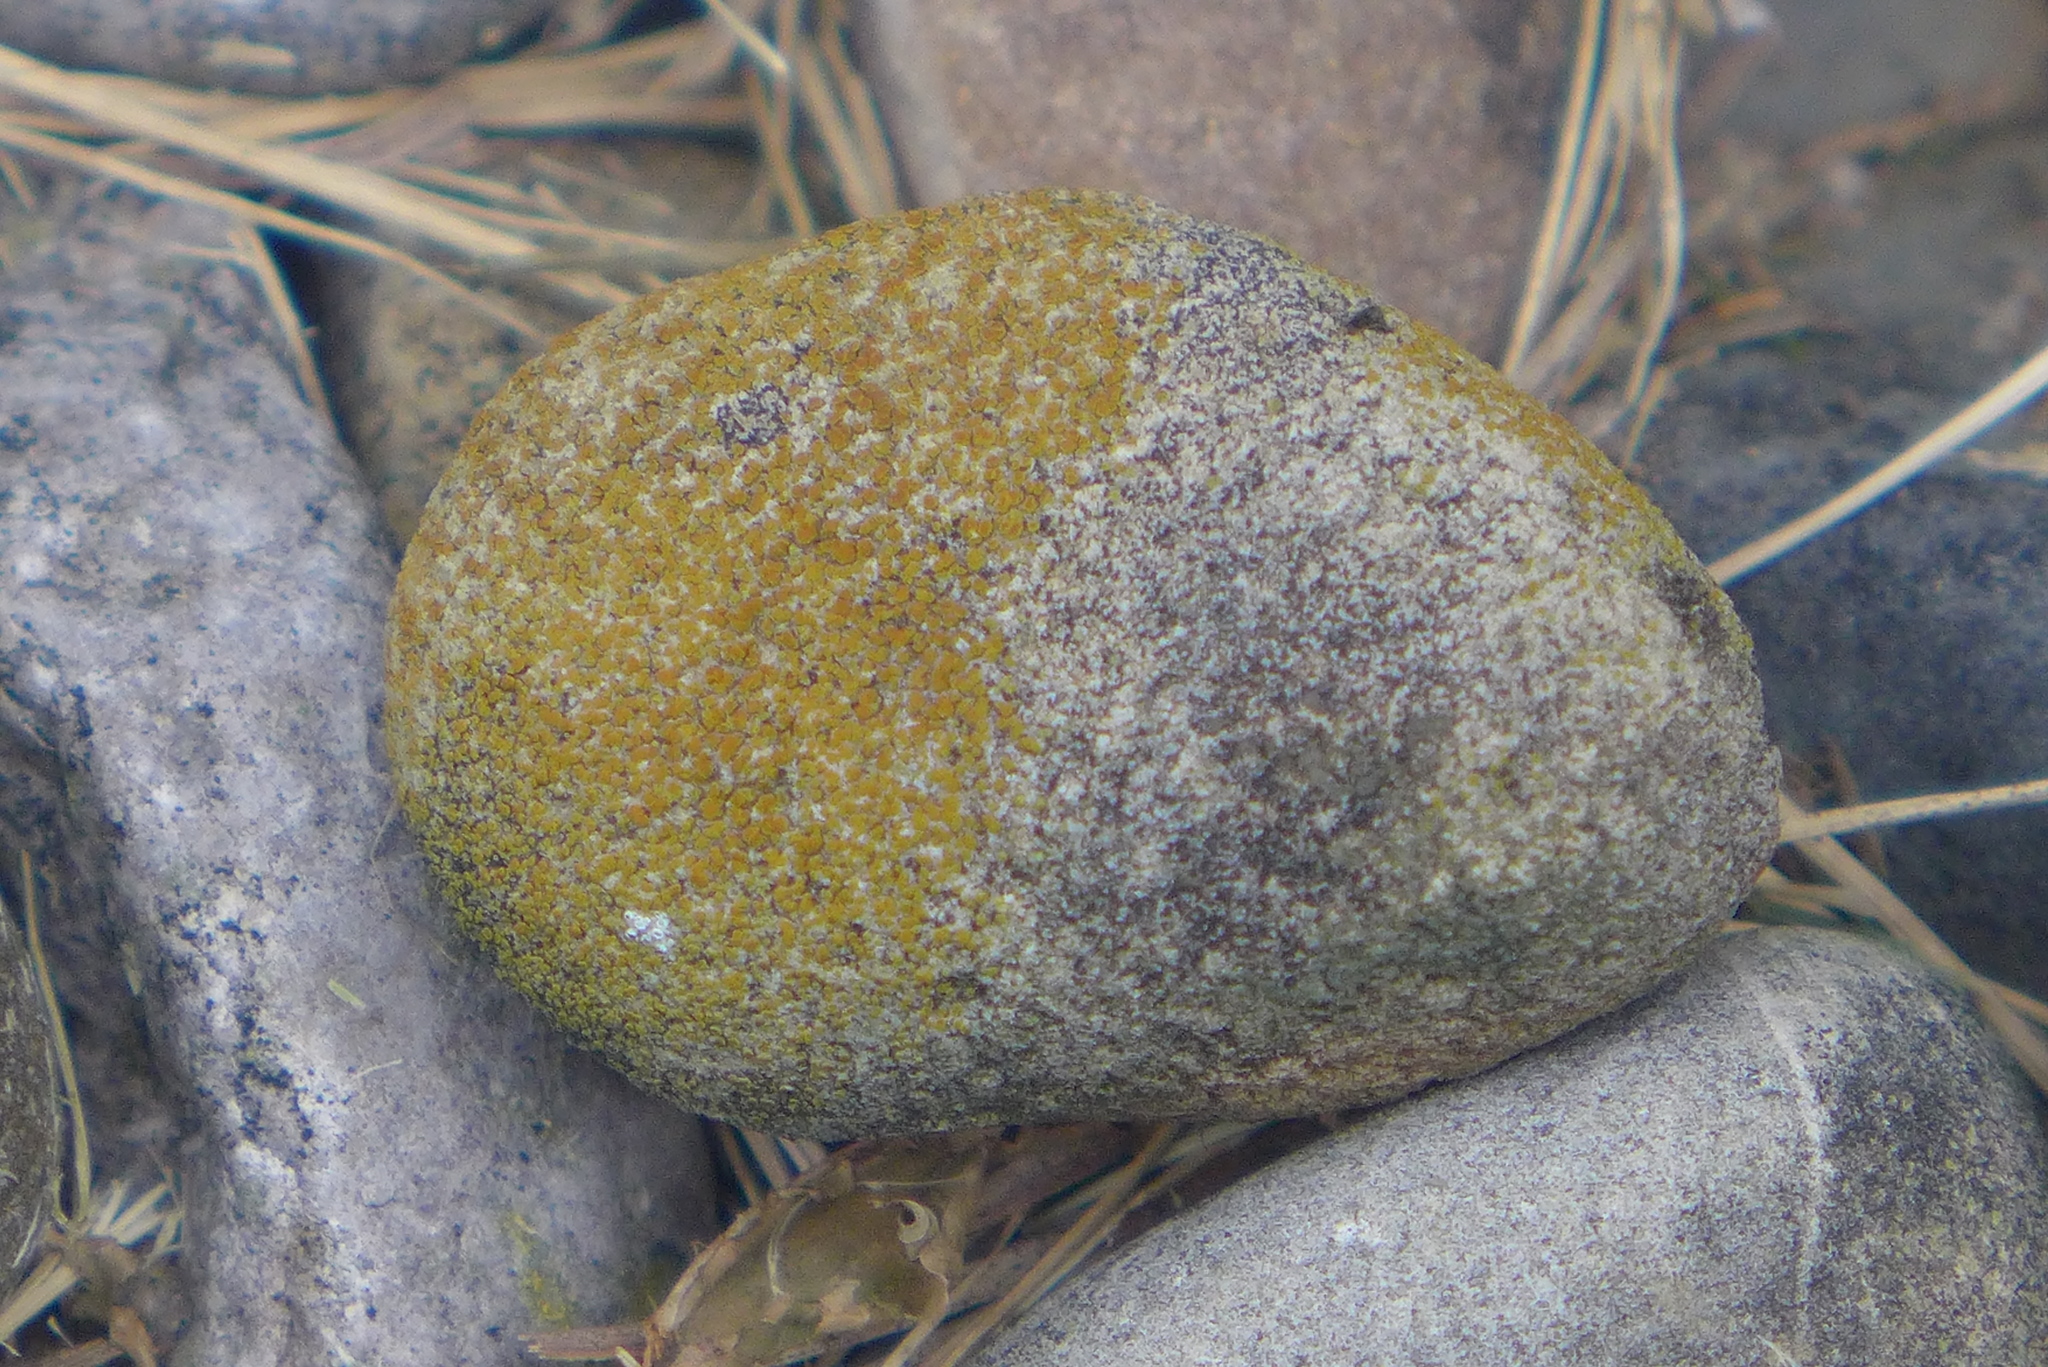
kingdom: Fungi
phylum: Ascomycota
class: Lecanoromycetes
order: Teloschistales
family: Teloschistaceae
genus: Xanthocarpia
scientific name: Xanthocarpia feracissima
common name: Sidewalk firedot
